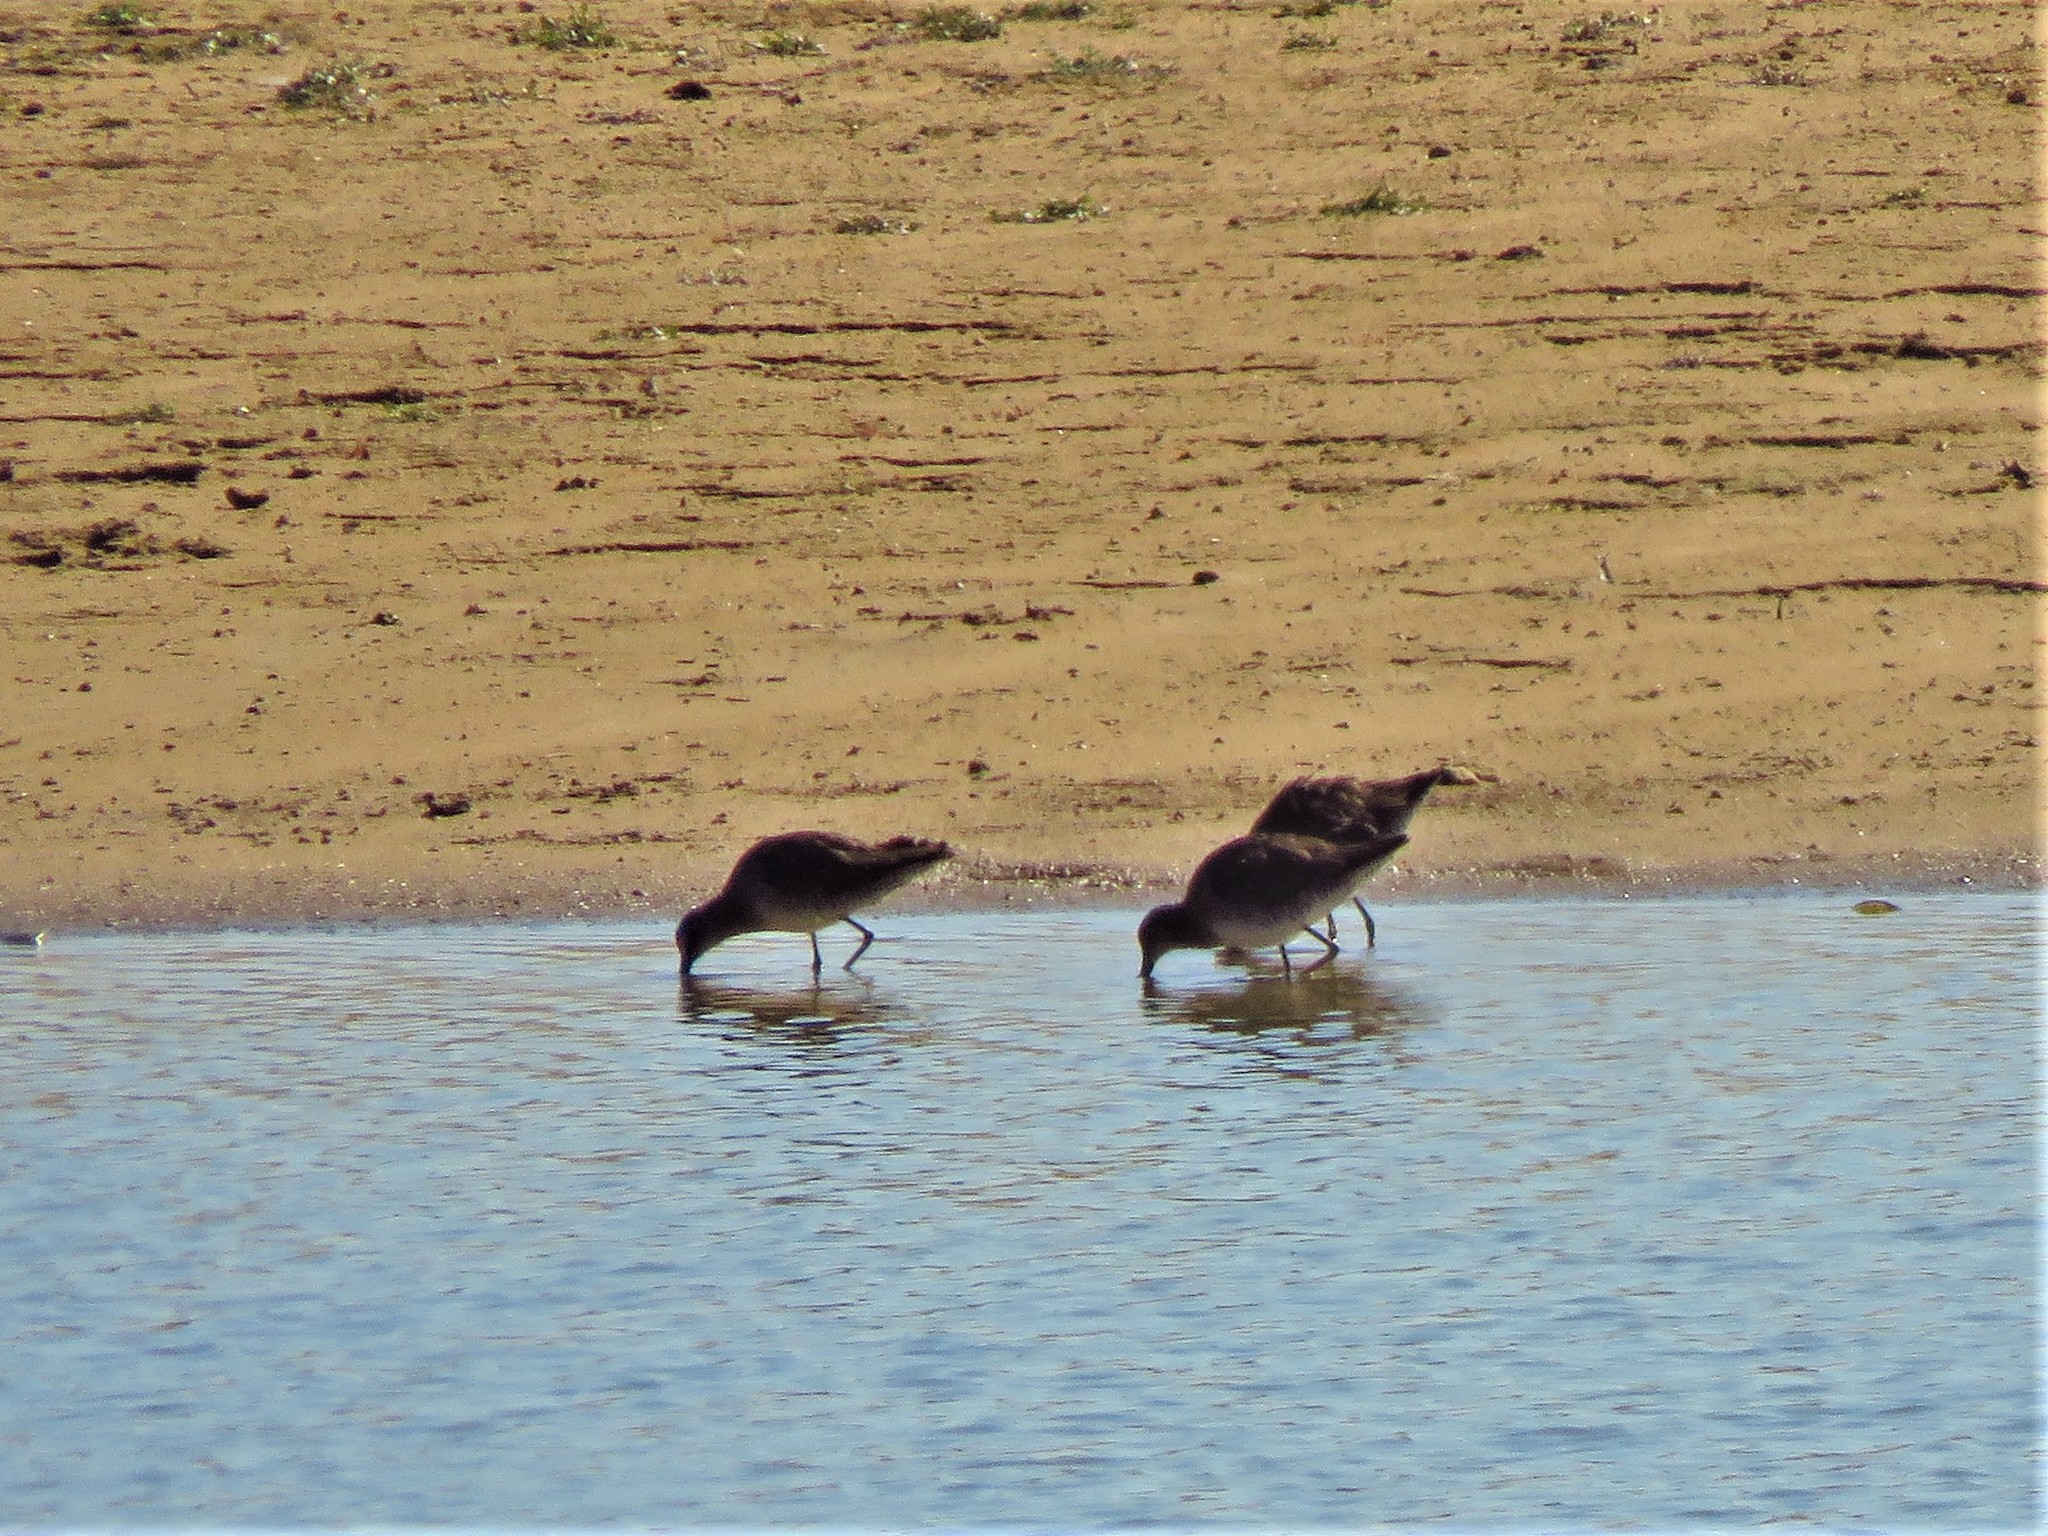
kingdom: Animalia
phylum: Chordata
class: Aves
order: Charadriiformes
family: Scolopacidae
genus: Limnodromus
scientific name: Limnodromus scolopaceus
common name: Long-billed dowitcher
